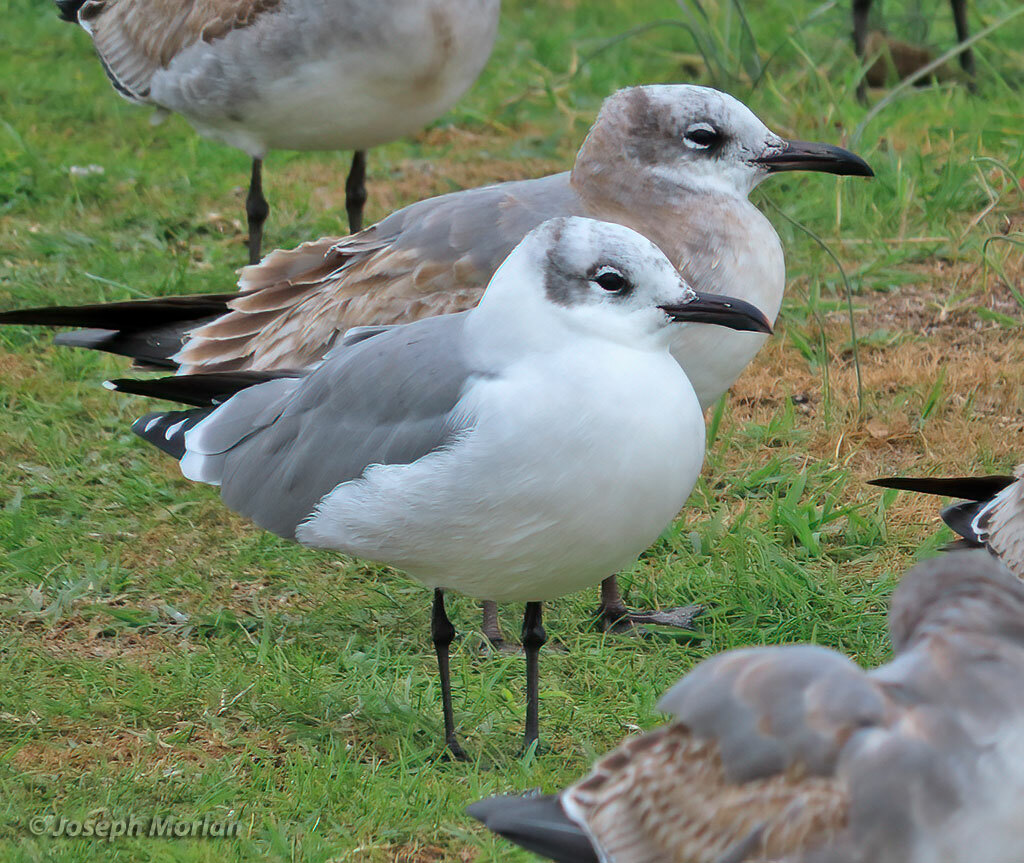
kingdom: Animalia
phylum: Chordata
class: Aves
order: Charadriiformes
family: Laridae
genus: Leucophaeus
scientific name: Leucophaeus atricilla
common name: Laughing gull
